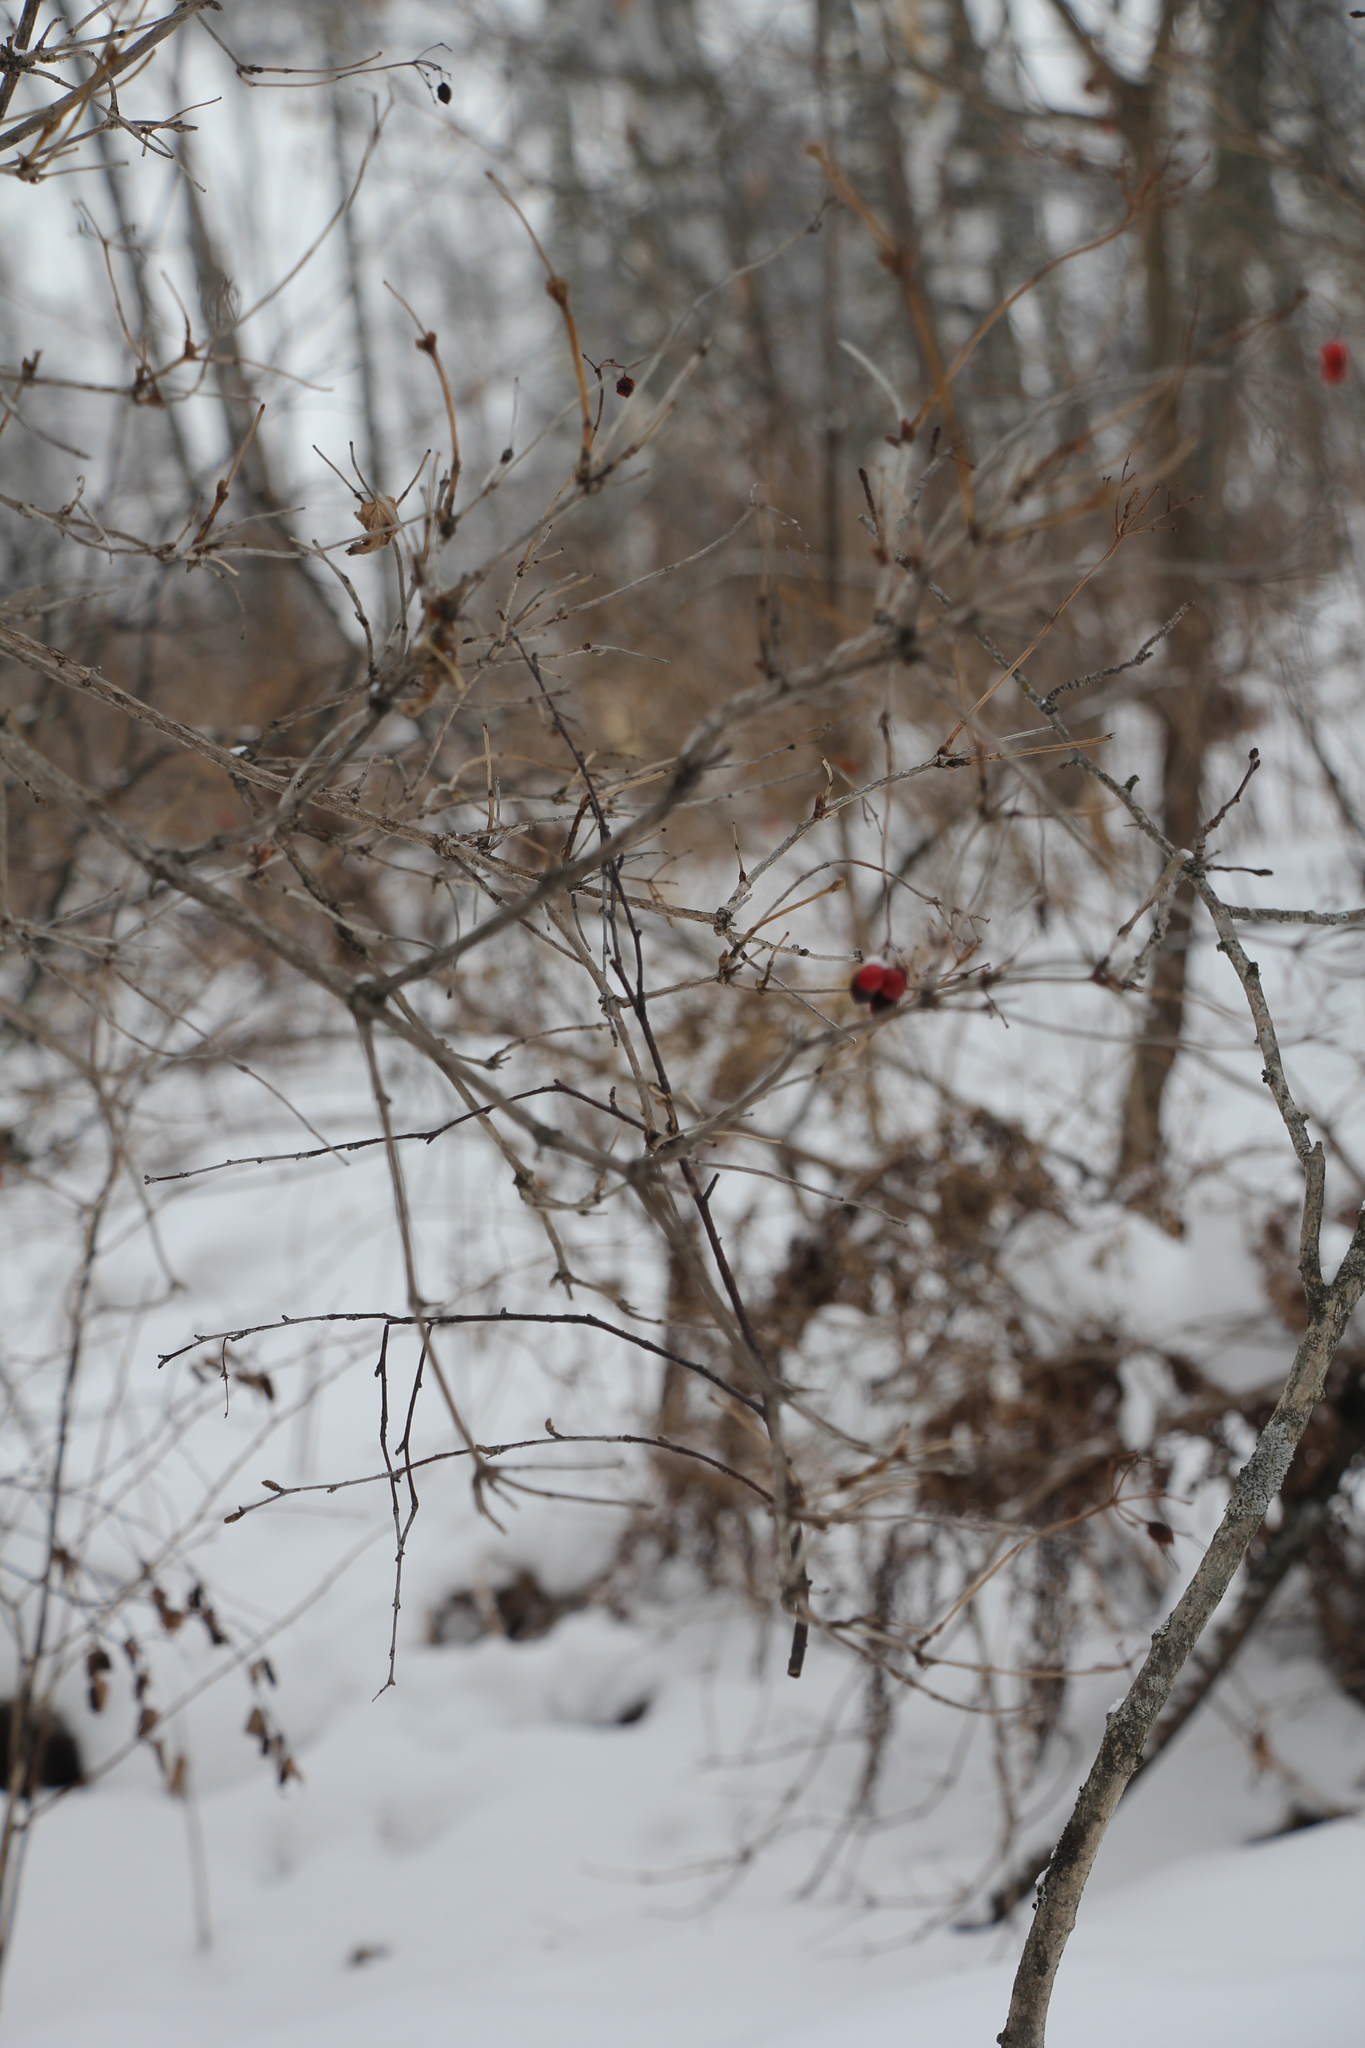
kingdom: Plantae
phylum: Tracheophyta
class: Magnoliopsida
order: Dipsacales
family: Viburnaceae
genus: Viburnum
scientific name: Viburnum opulus
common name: Guelder-rose
